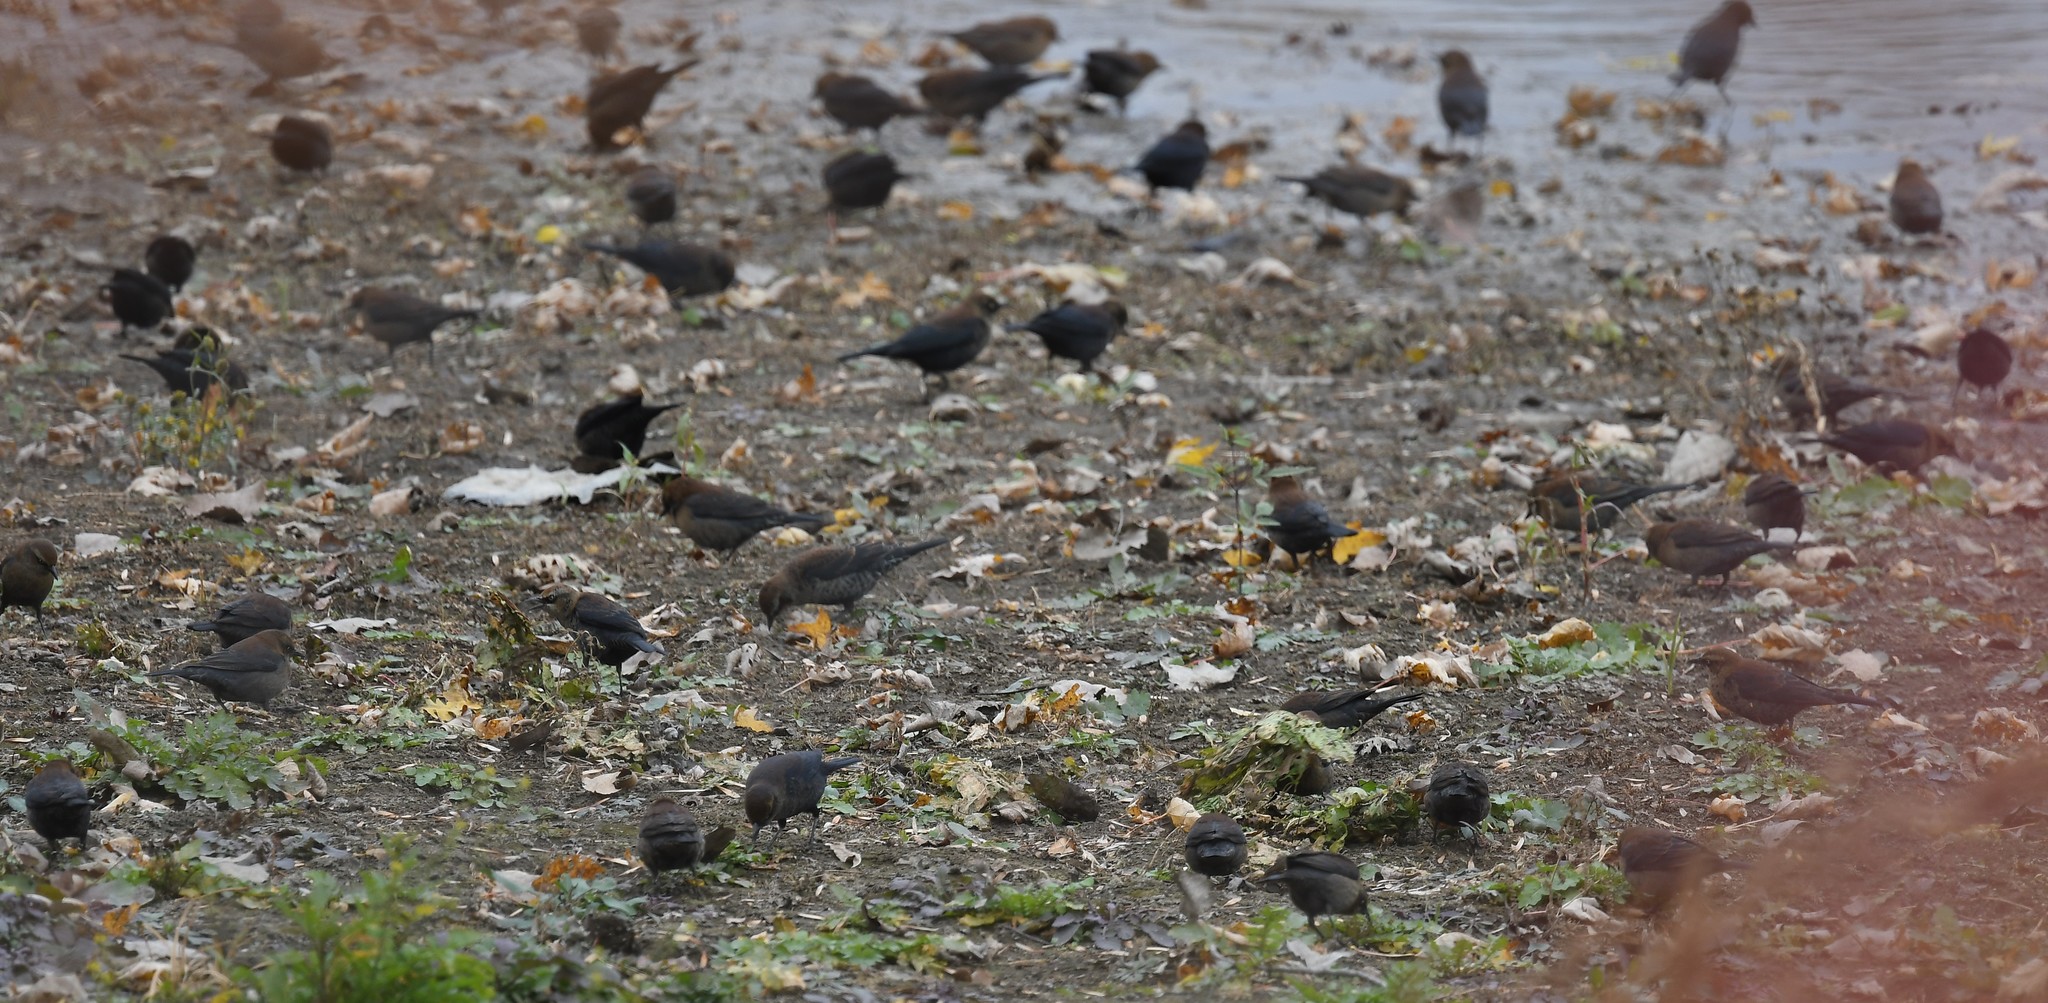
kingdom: Animalia
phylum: Chordata
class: Aves
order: Passeriformes
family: Icteridae
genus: Euphagus
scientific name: Euphagus carolinus
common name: Rusty blackbird
